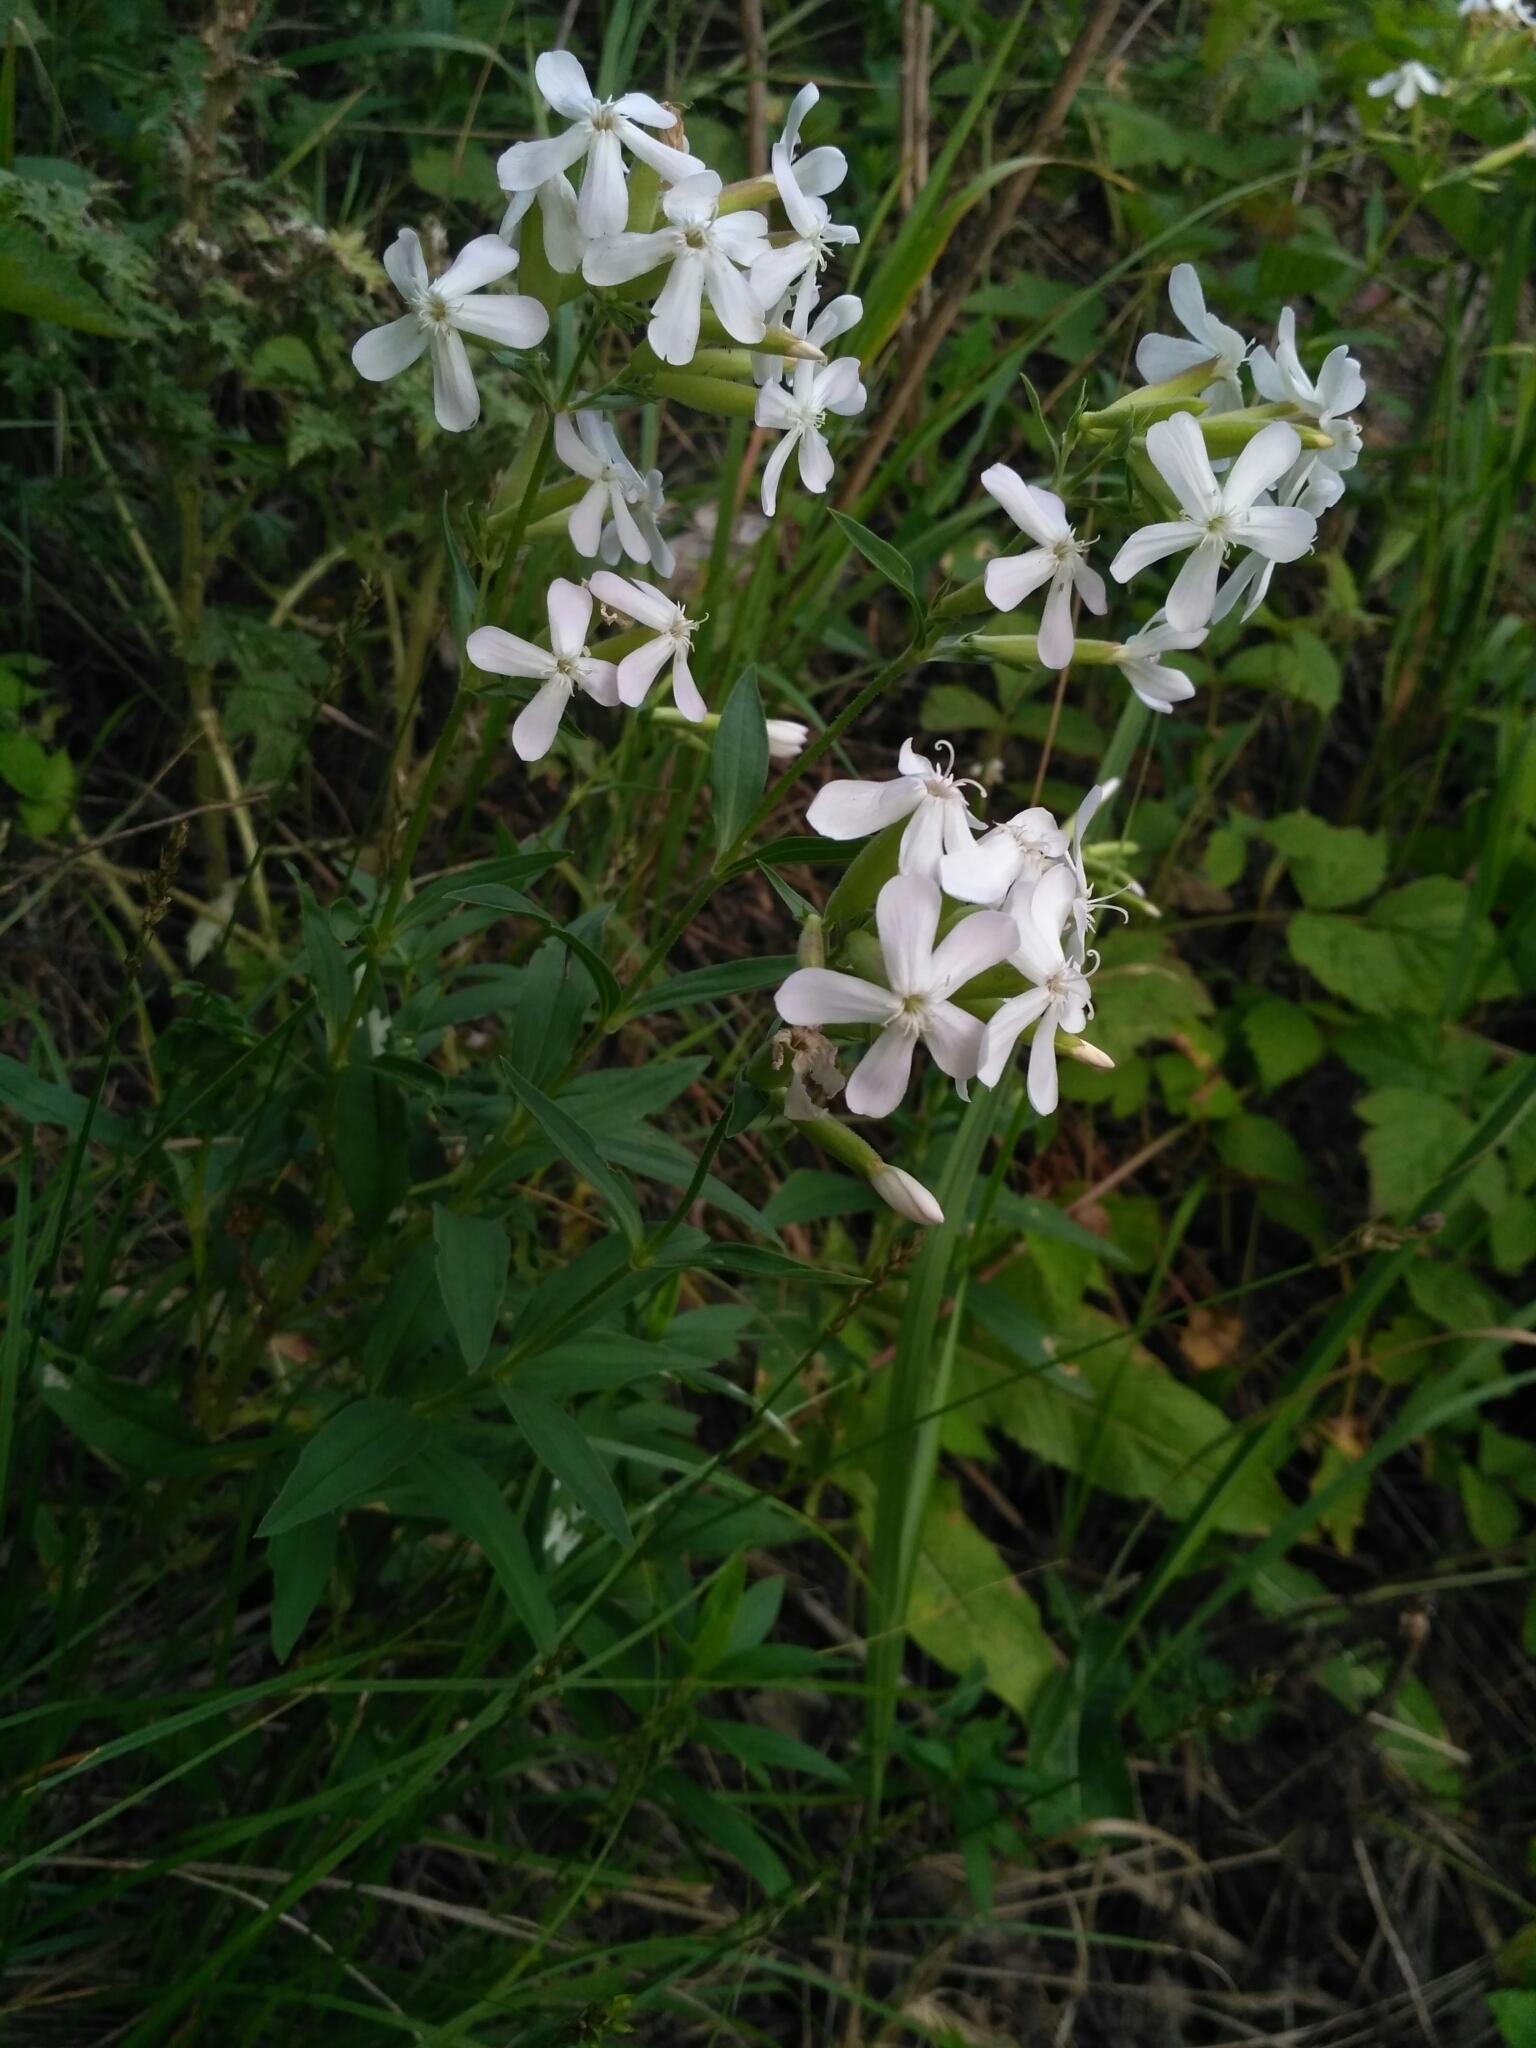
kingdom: Plantae
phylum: Tracheophyta
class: Magnoliopsida
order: Caryophyllales
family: Caryophyllaceae
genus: Saponaria
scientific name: Saponaria officinalis
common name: Soapwort
